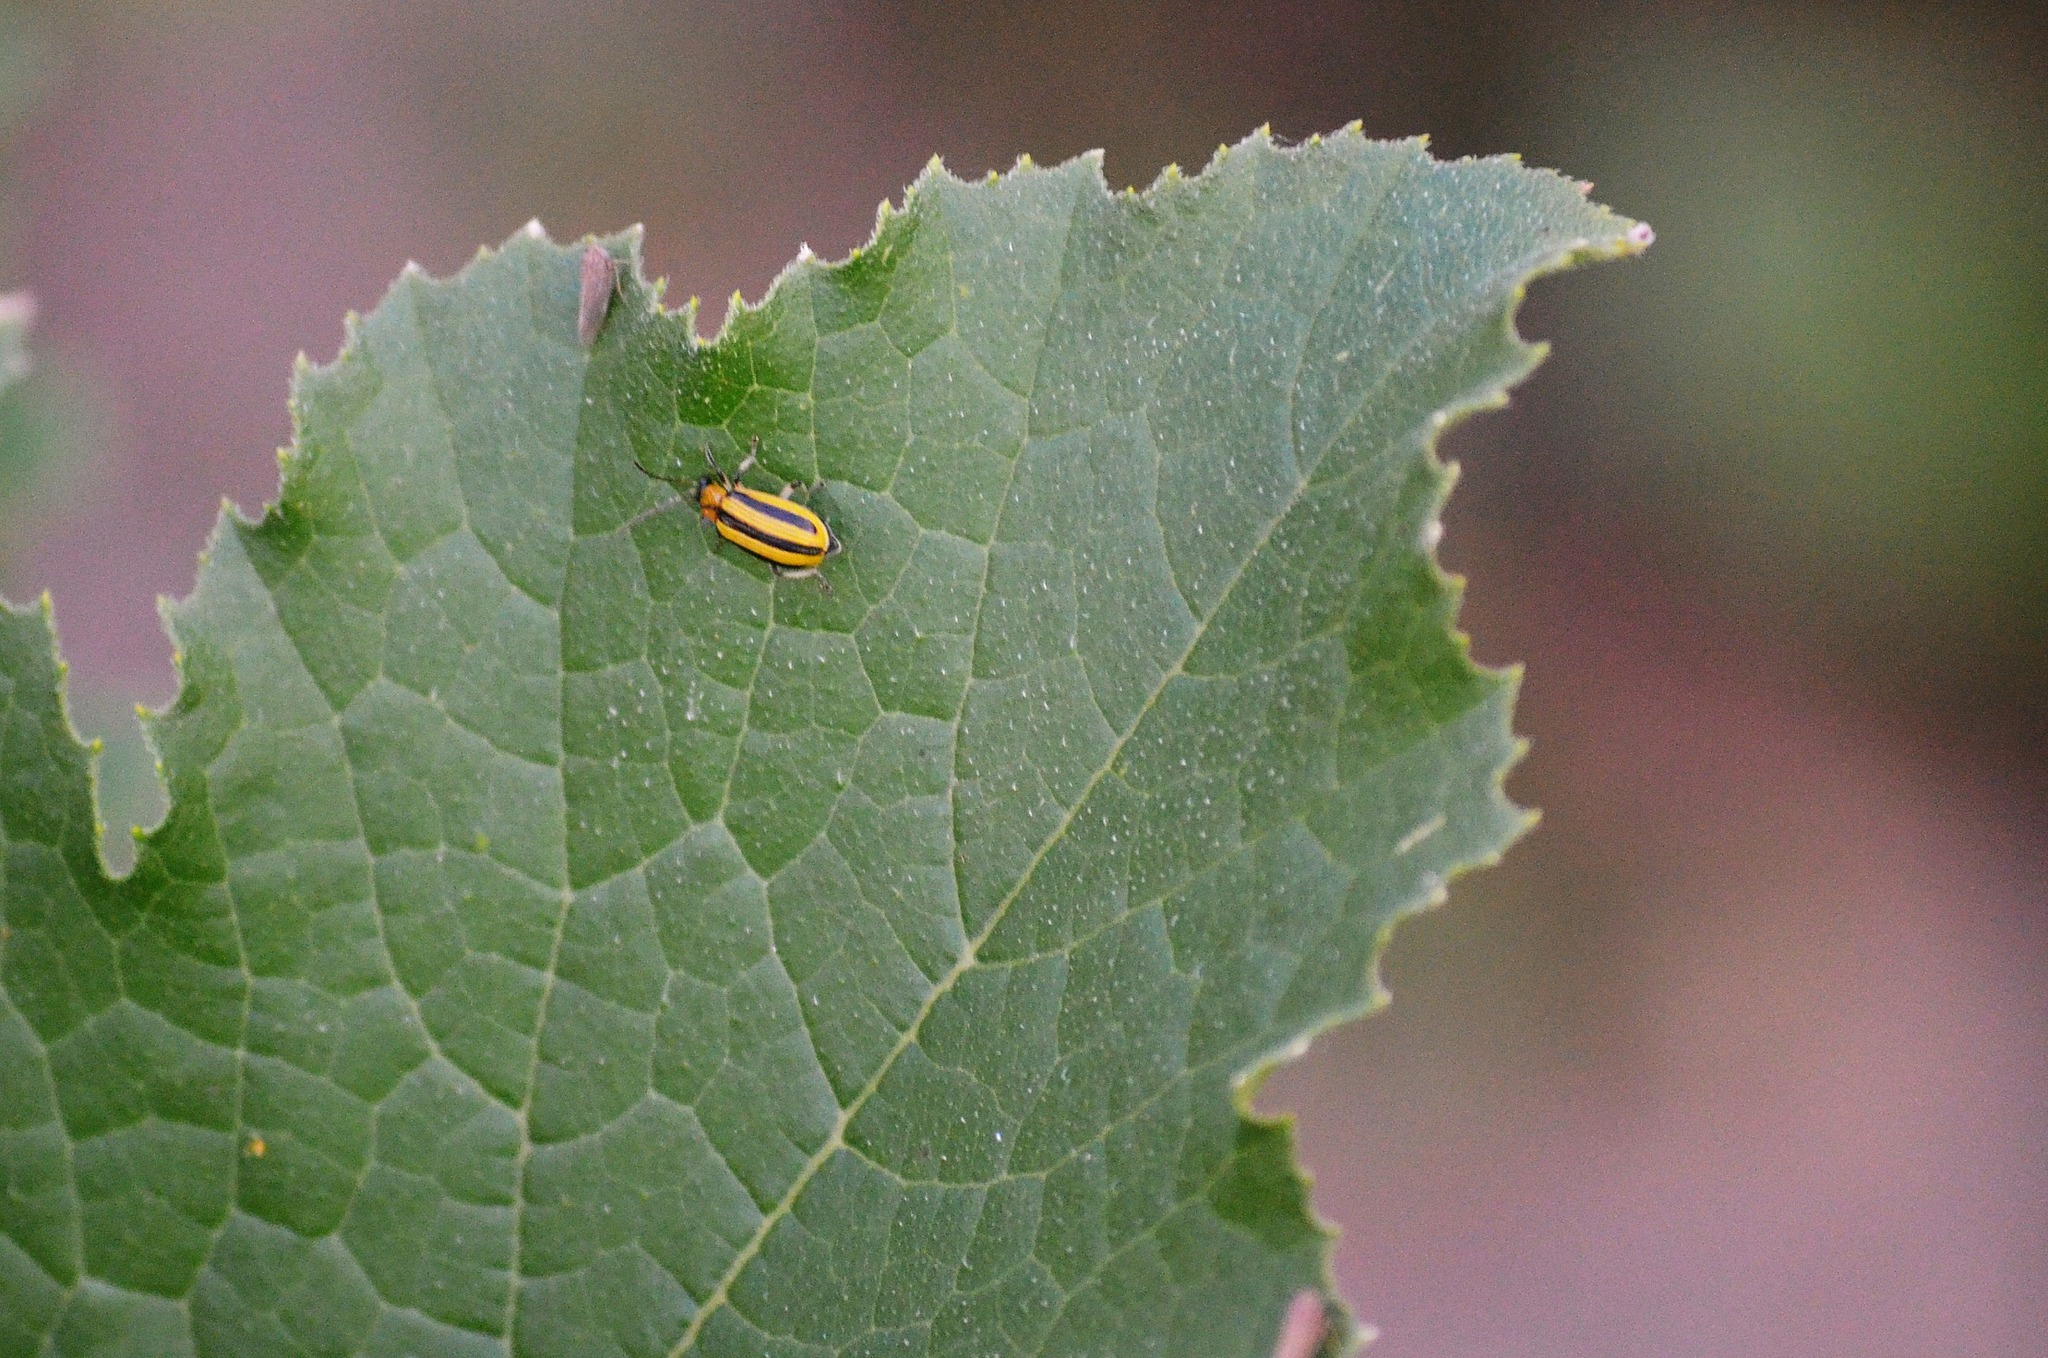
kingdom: Animalia
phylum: Arthropoda
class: Insecta
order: Coleoptera
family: Chrysomelidae
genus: Acalymma
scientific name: Acalymma vittatum
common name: Striped cucumber beetle
